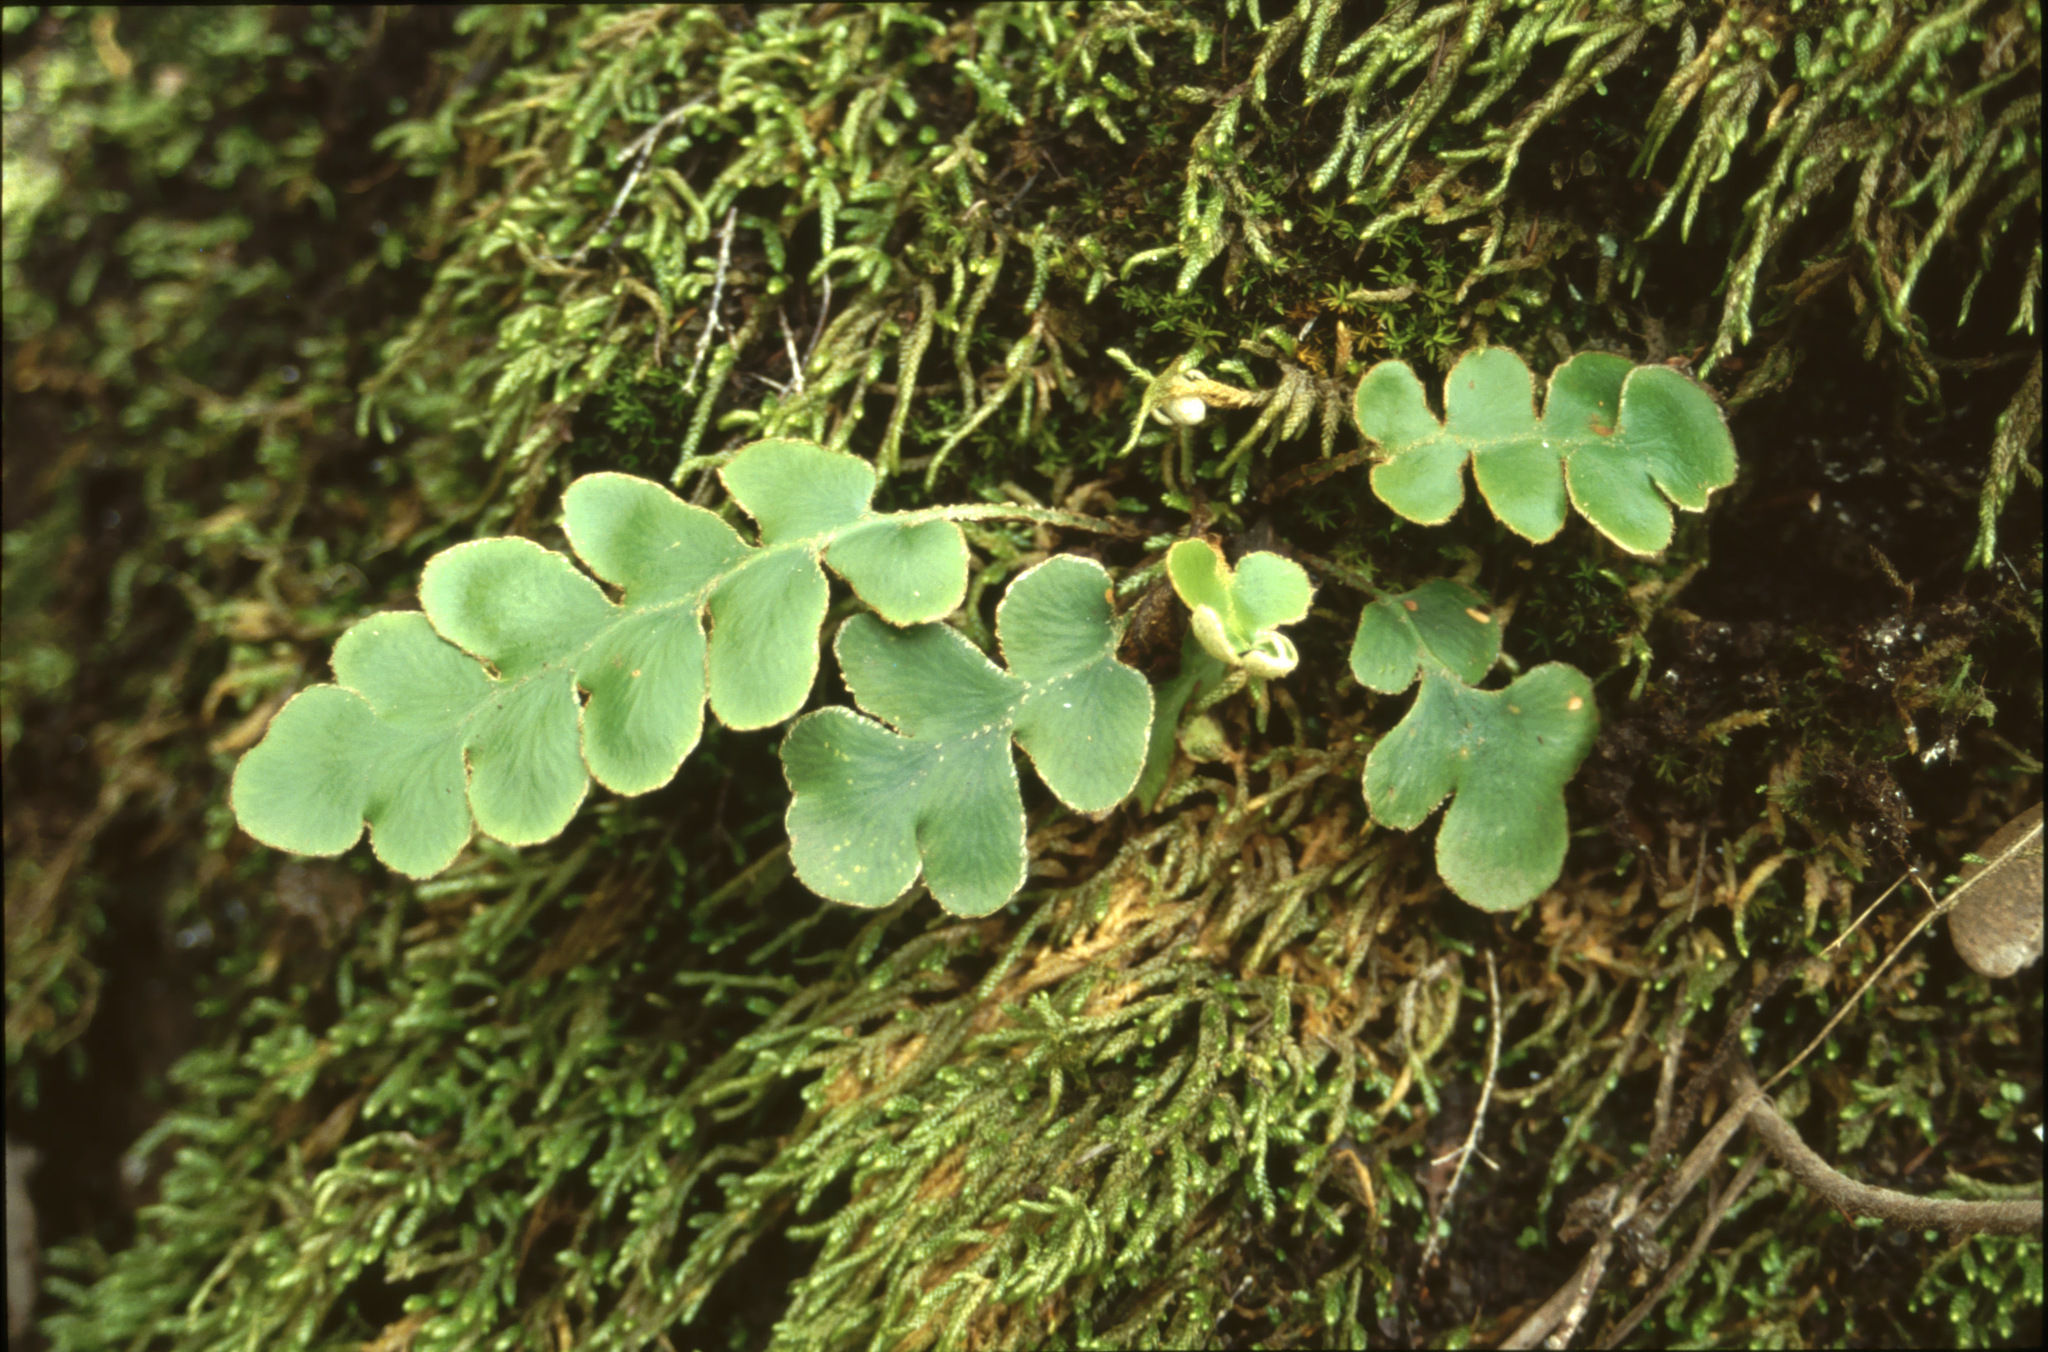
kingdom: Plantae
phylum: Tracheophyta
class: Polypodiopsida
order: Polypodiales
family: Aspleniaceae
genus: Asplenium
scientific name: Asplenium aureum
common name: Golden rustyback fern
